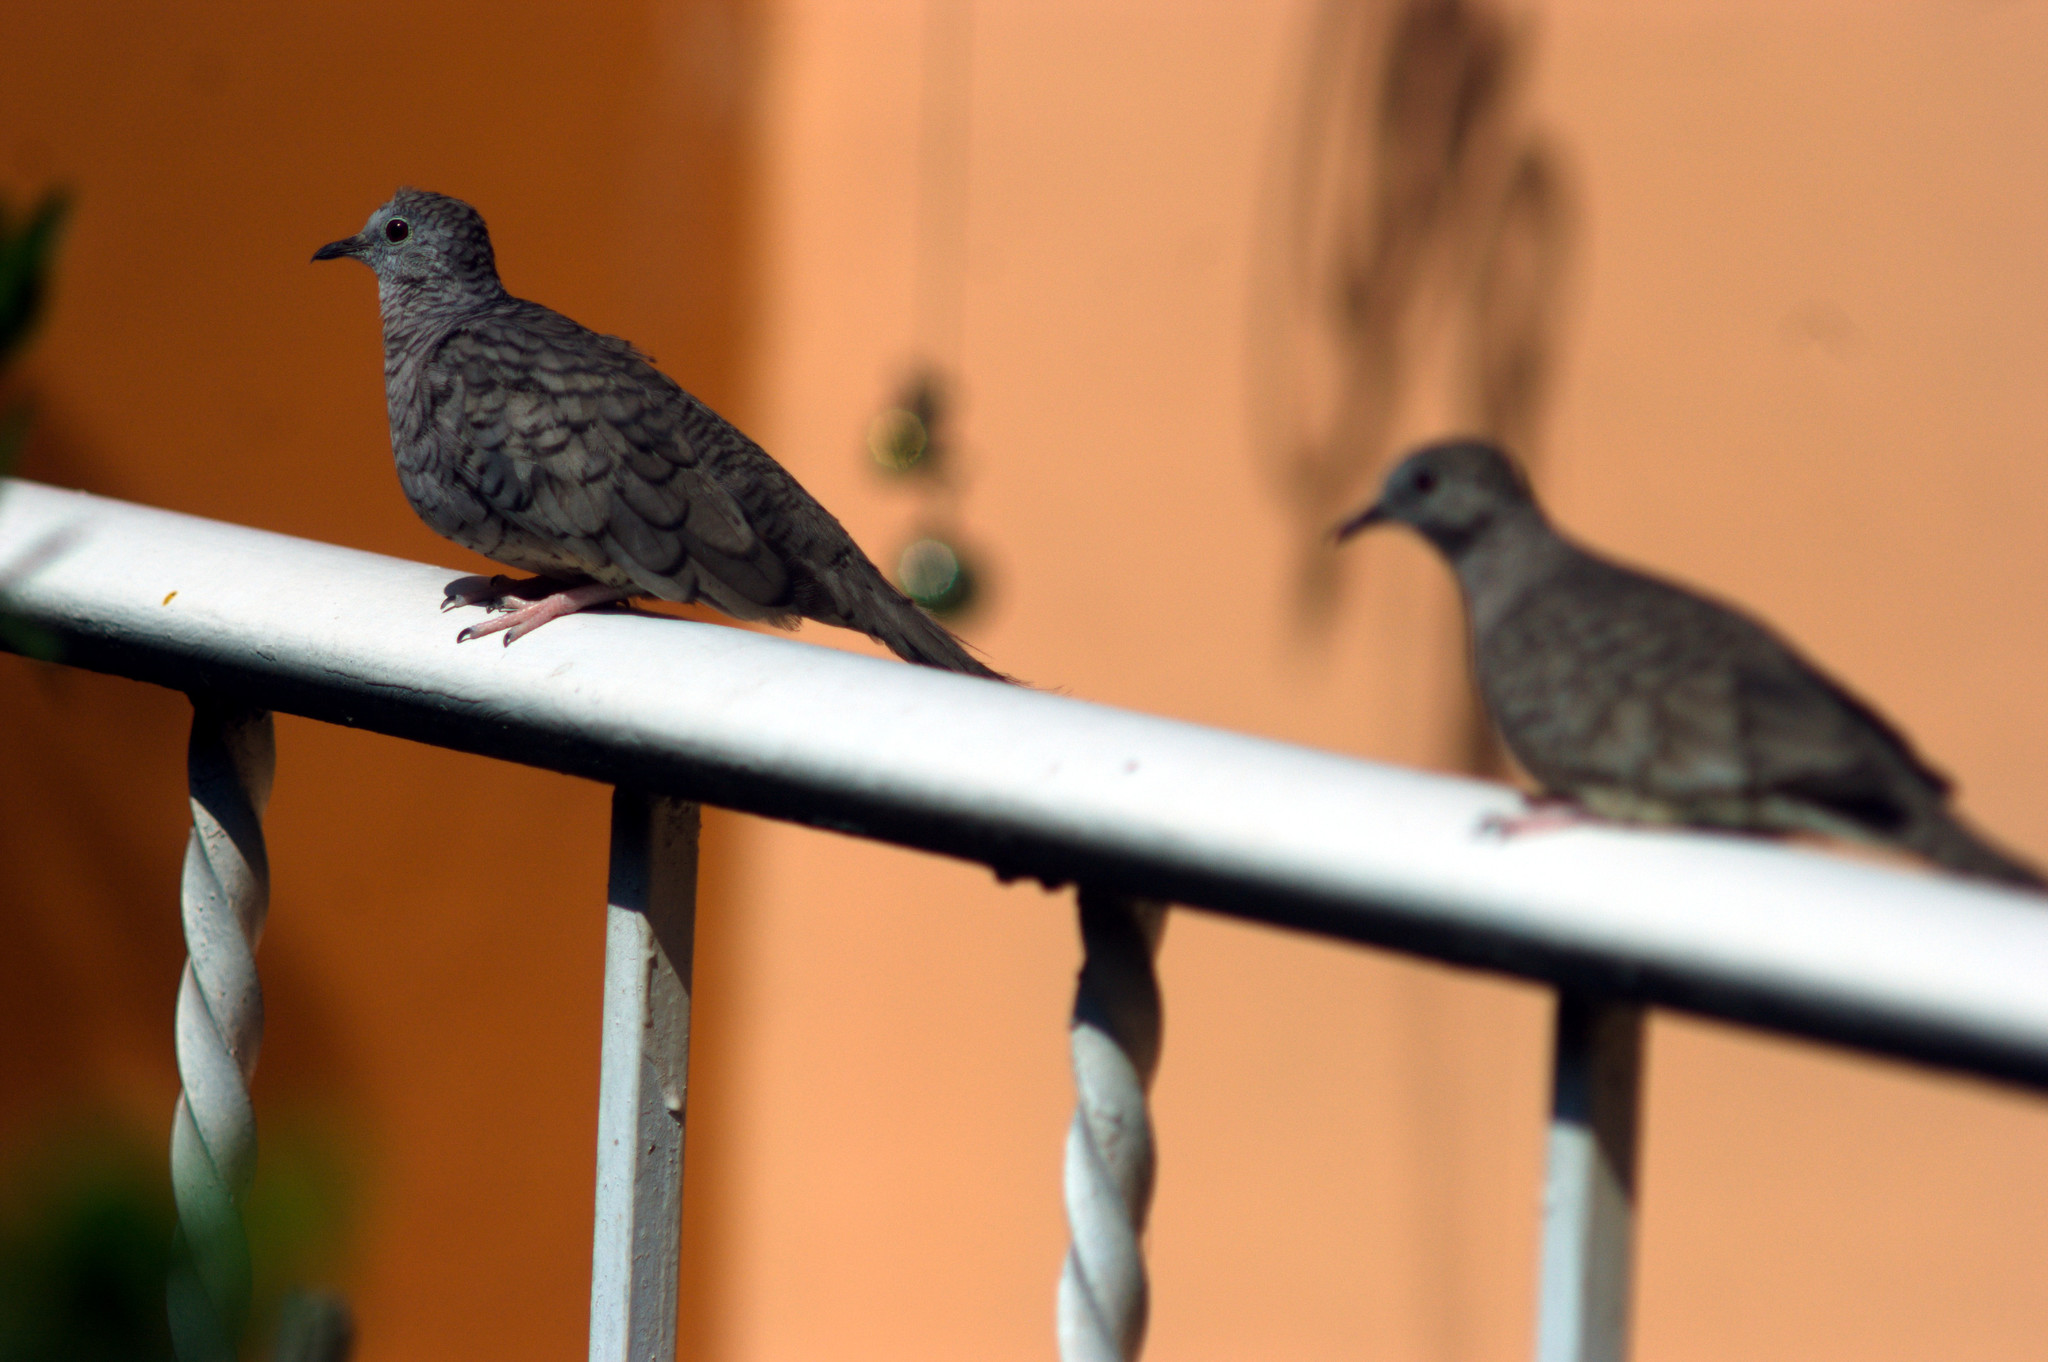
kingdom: Animalia
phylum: Chordata
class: Aves
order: Columbiformes
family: Columbidae
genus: Columbina
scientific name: Columbina inca
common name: Inca dove
